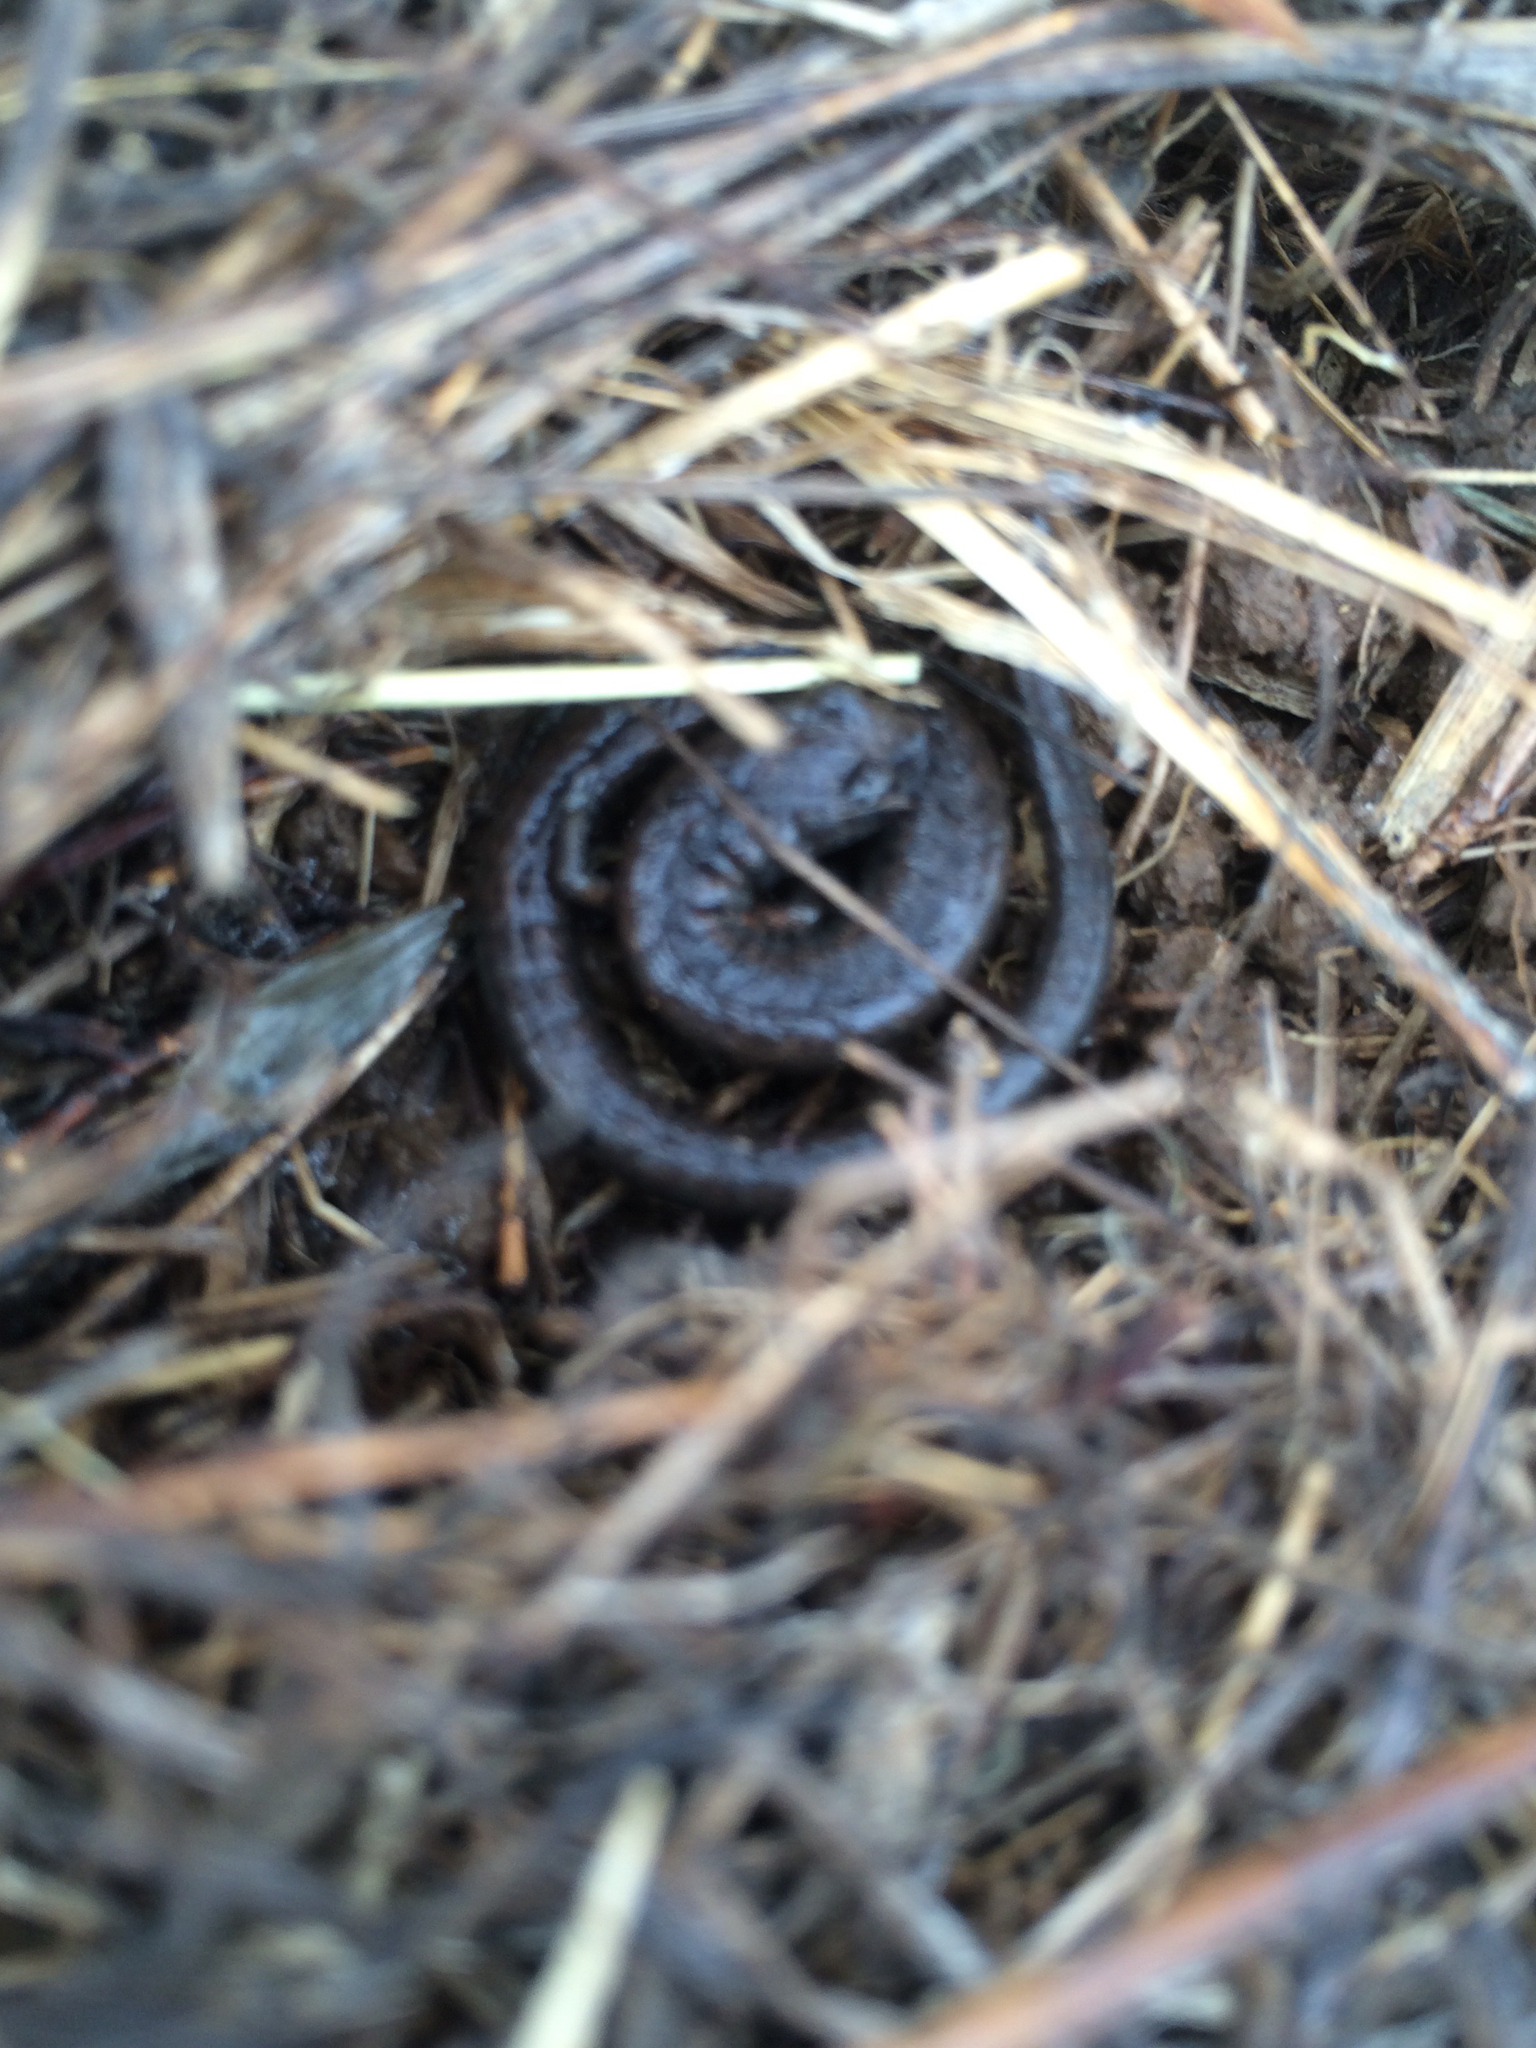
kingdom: Animalia
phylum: Chordata
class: Amphibia
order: Caudata
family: Plethodontidae
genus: Batrachoseps
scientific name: Batrachoseps attenuatus
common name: California slender salamander
